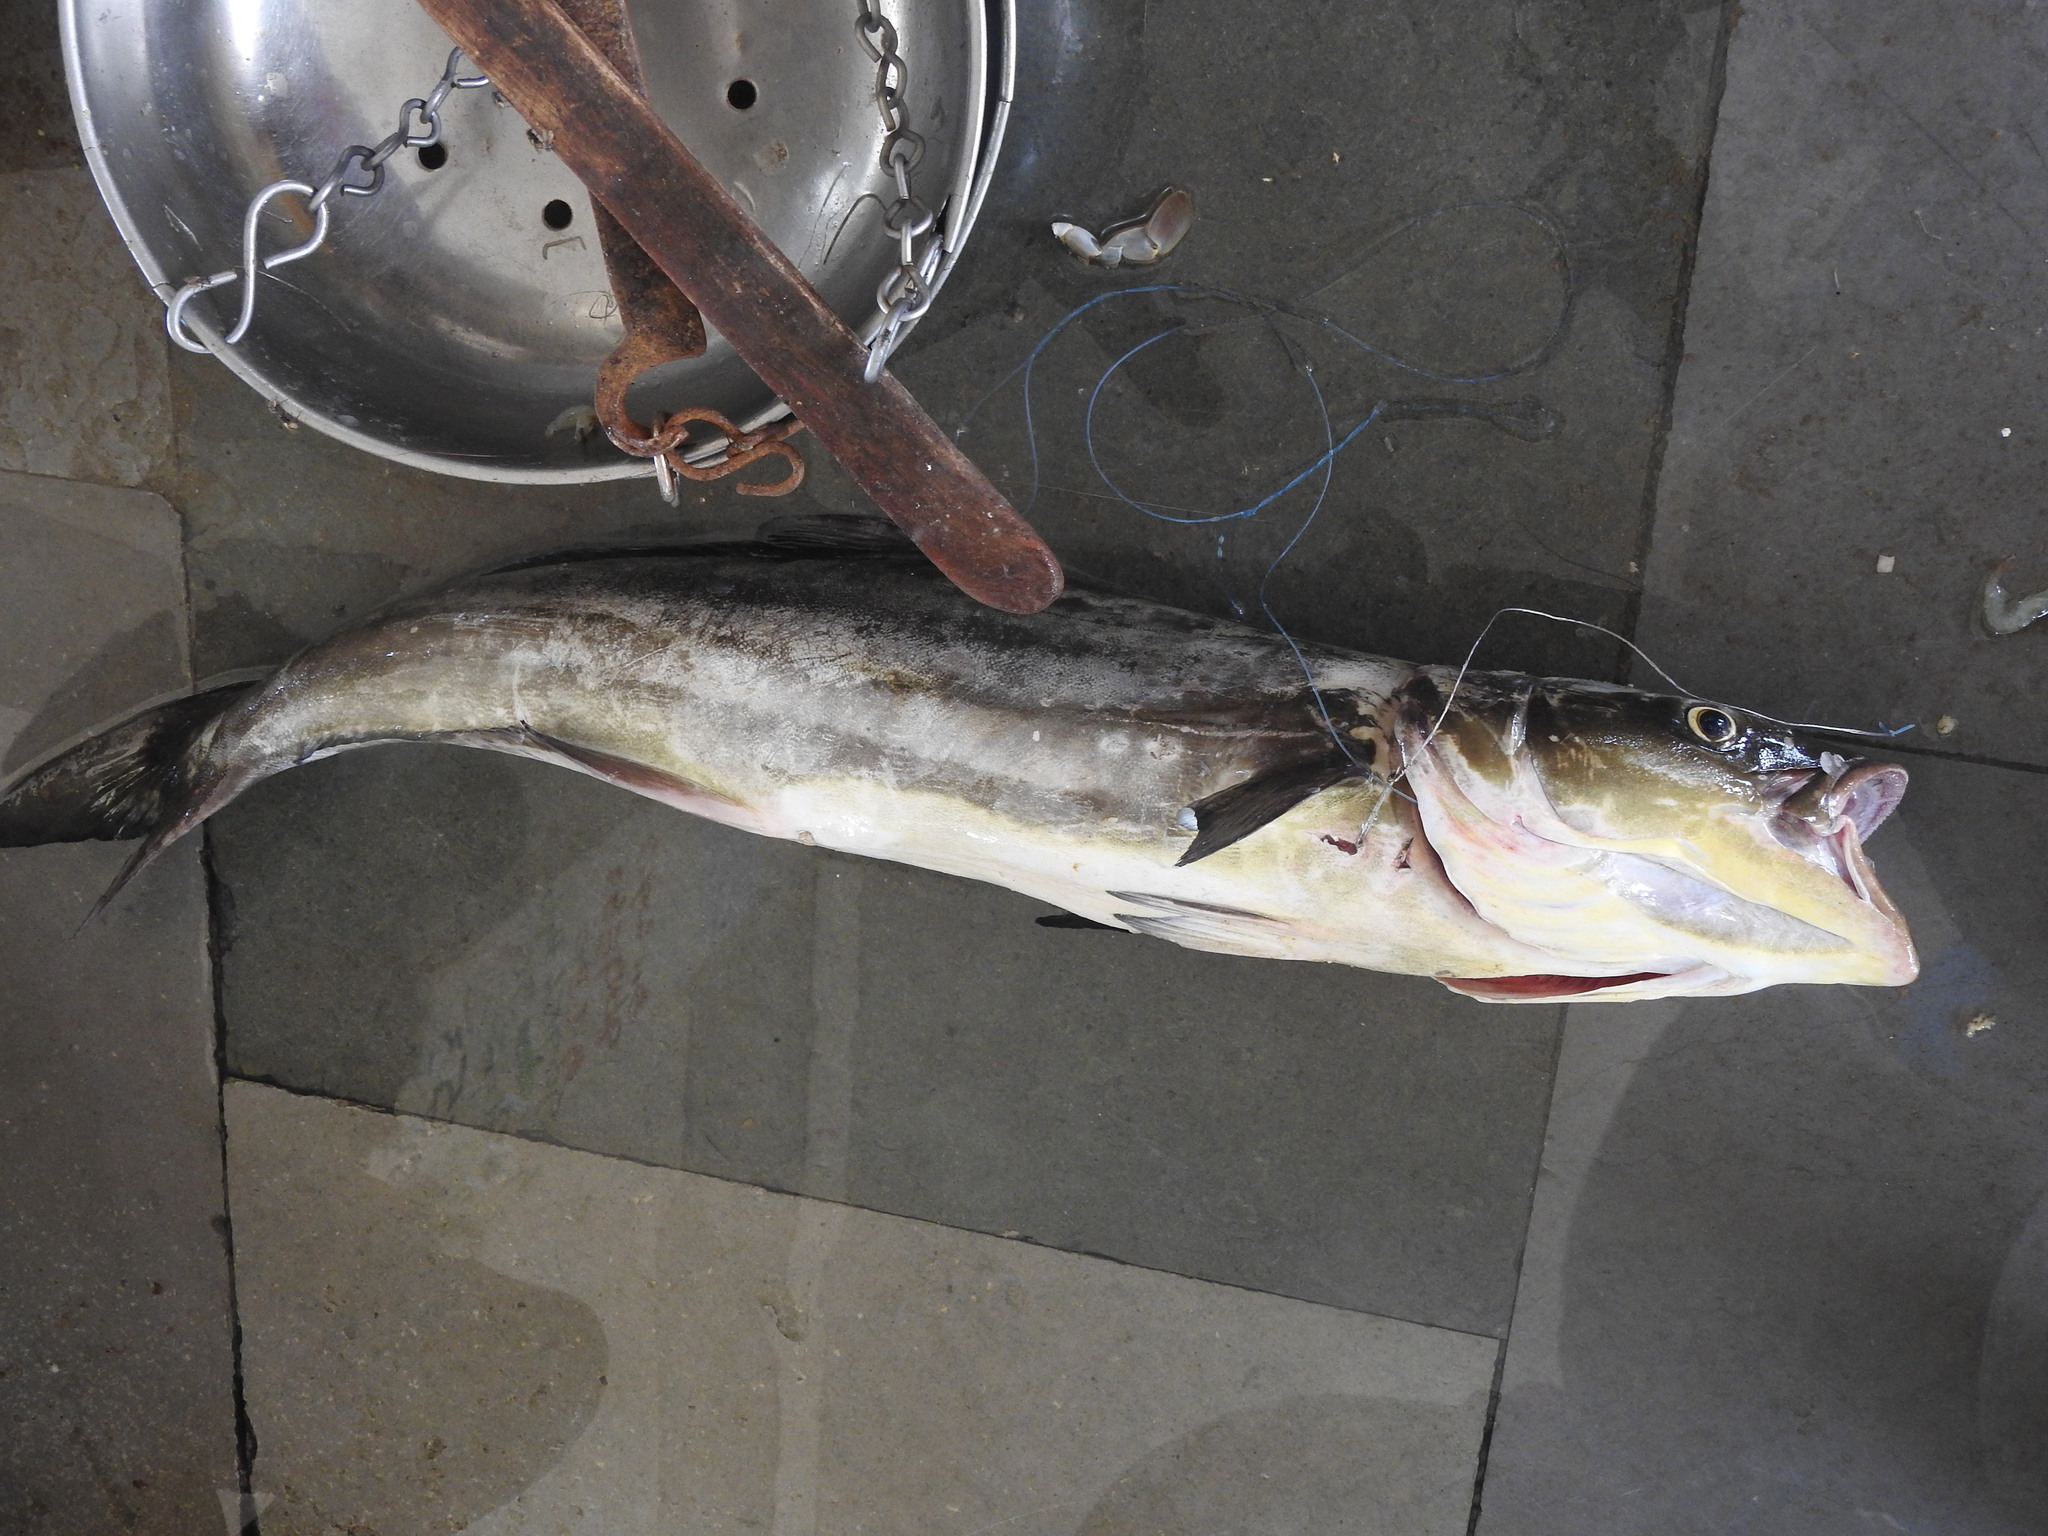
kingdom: Animalia
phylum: Chordata
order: Perciformes
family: Rachycentridae
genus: Rachycentron
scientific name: Rachycentron canadum
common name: Cobia
